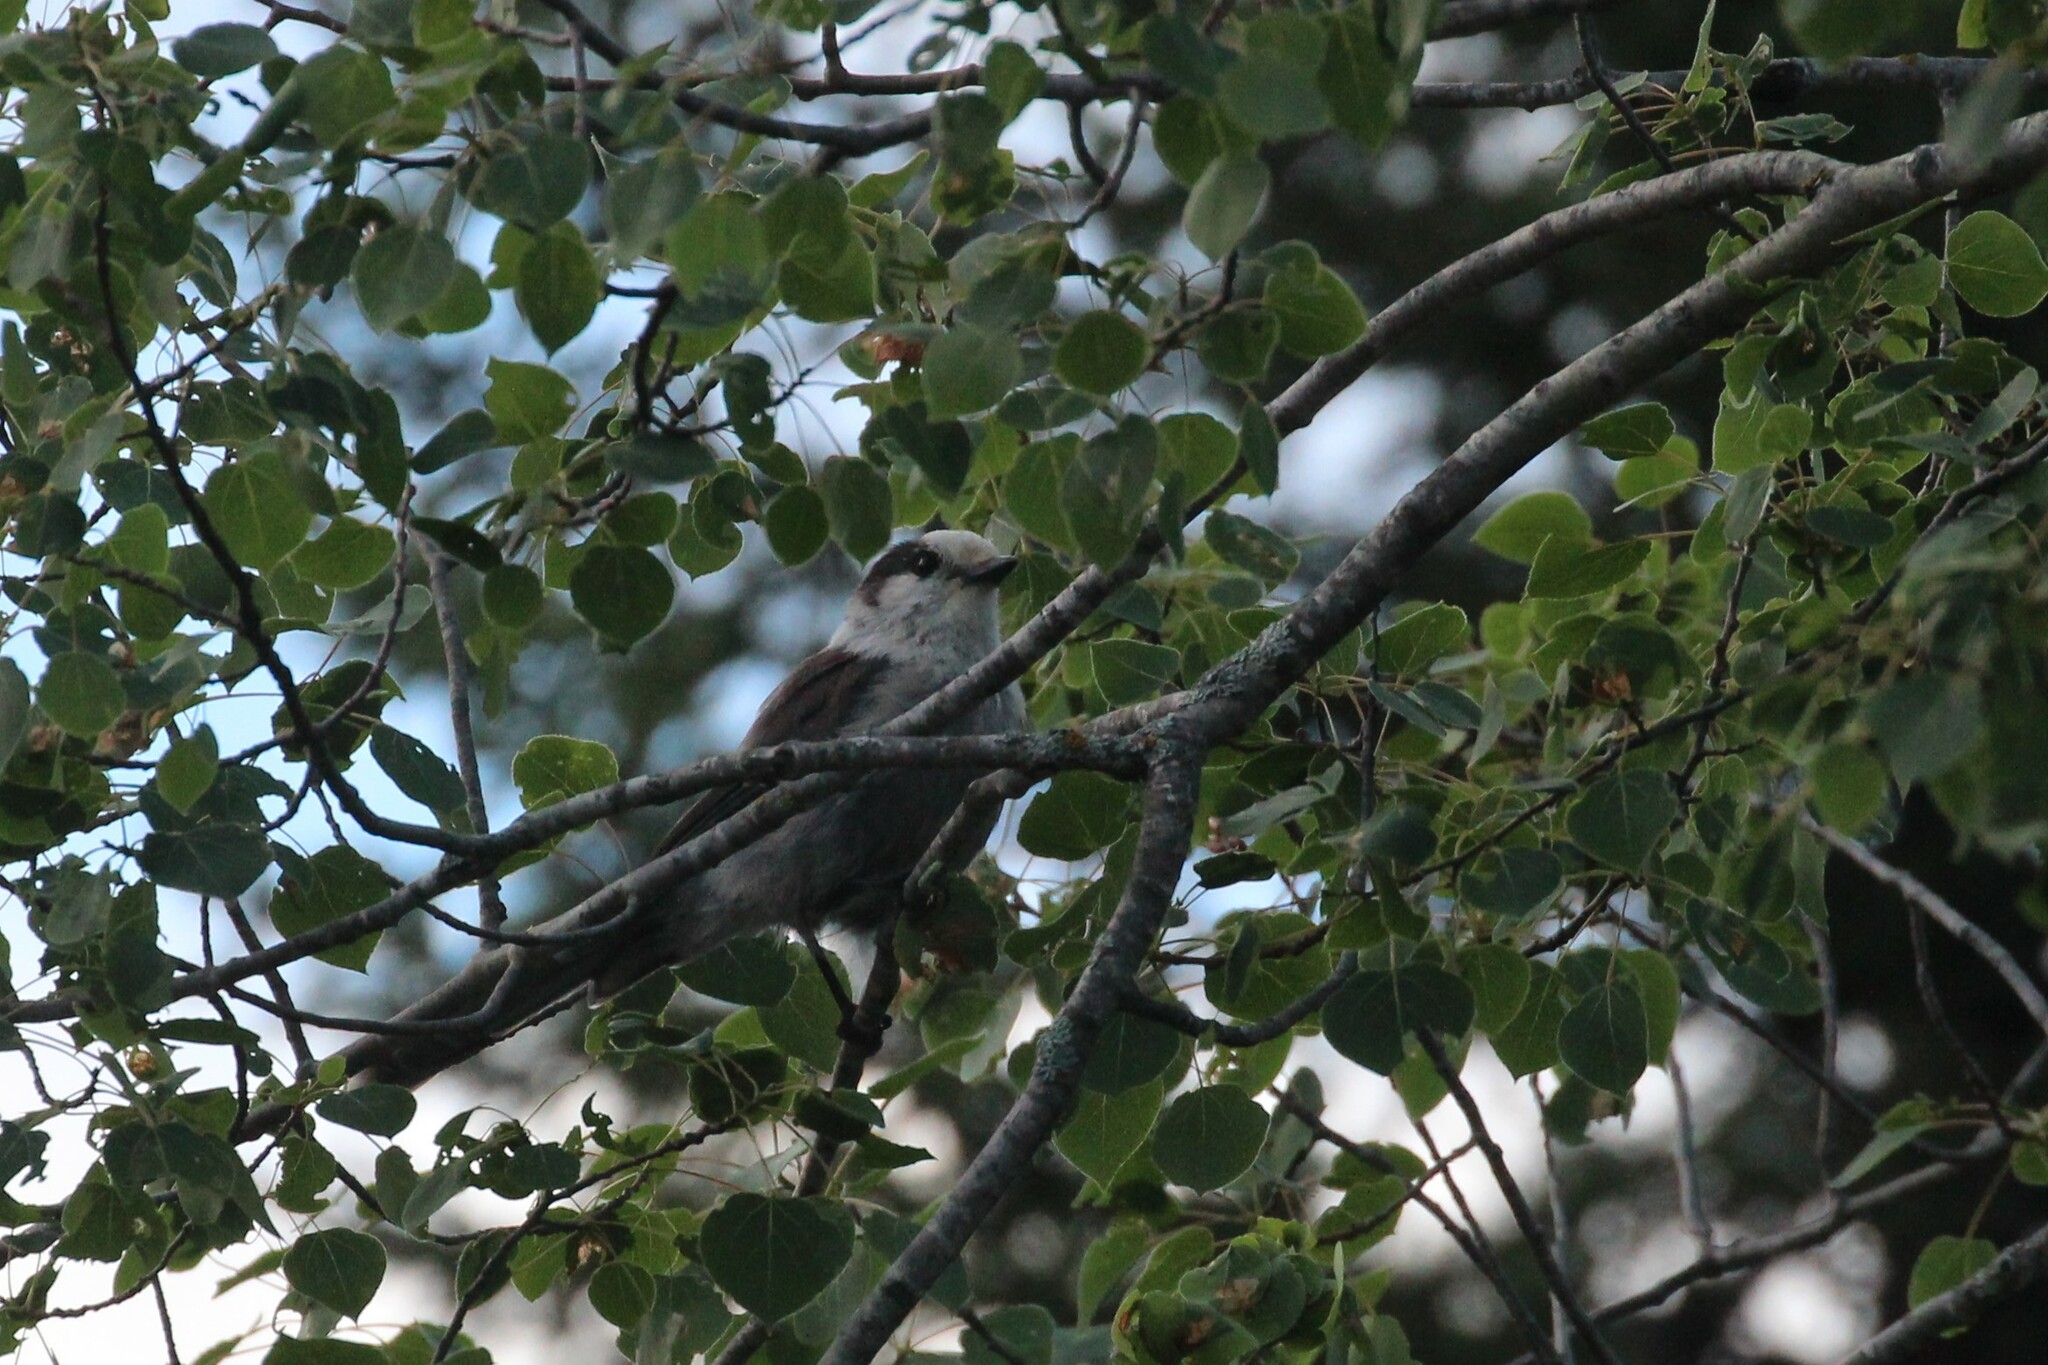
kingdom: Animalia
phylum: Chordata
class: Aves
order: Passeriformes
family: Corvidae
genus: Perisoreus
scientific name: Perisoreus canadensis
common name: Gray jay
